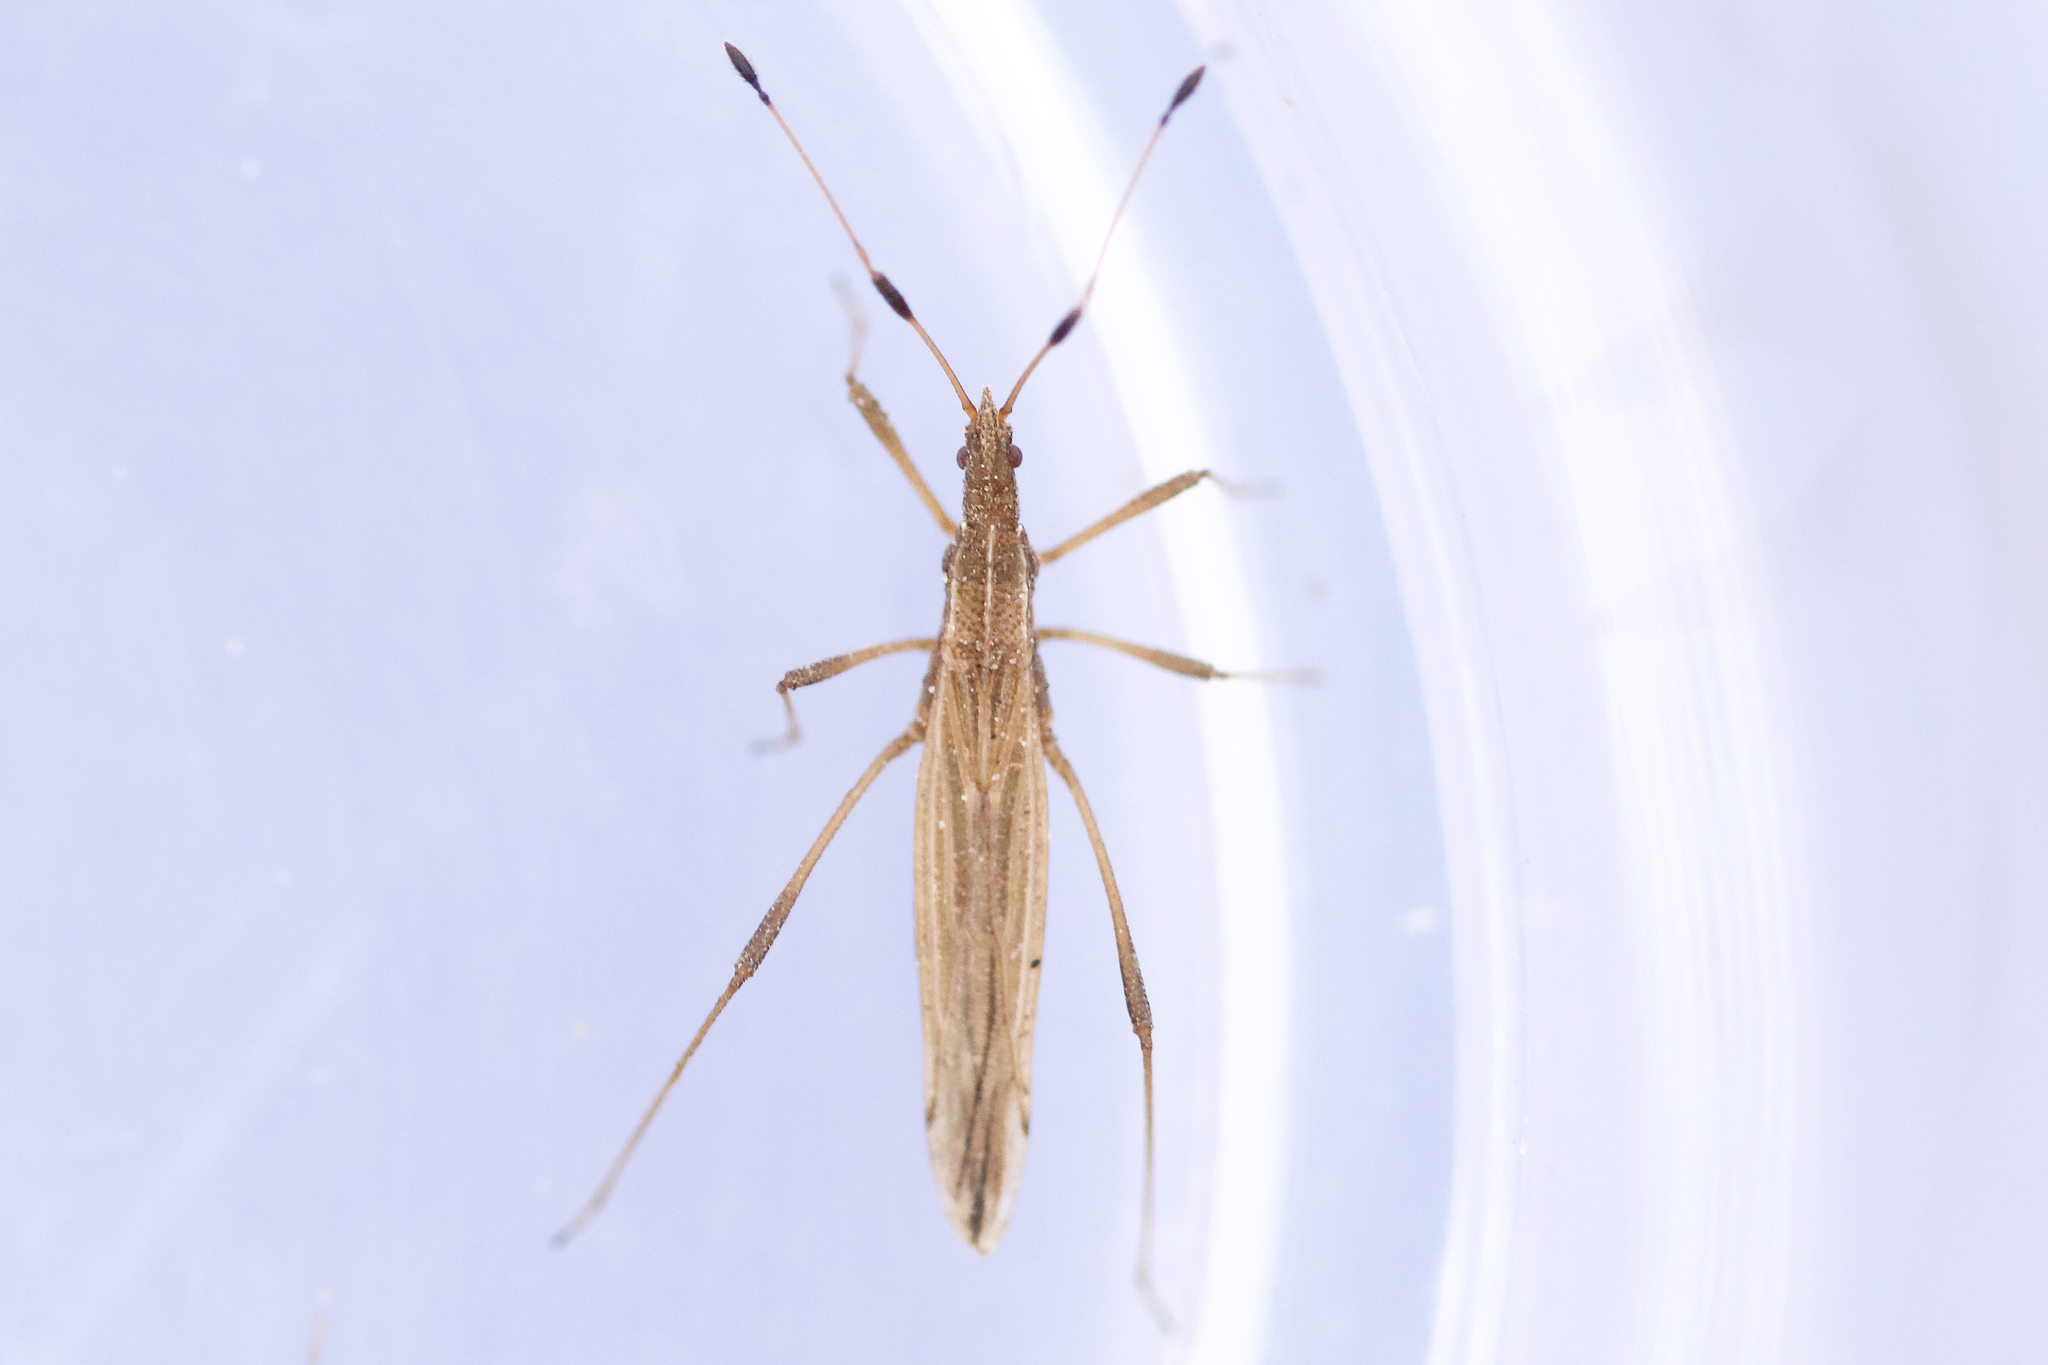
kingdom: Animalia
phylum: Arthropoda
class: Insecta
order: Hemiptera
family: Berytidae
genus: Berytinus
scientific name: Berytinus minor
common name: Stilt bug
